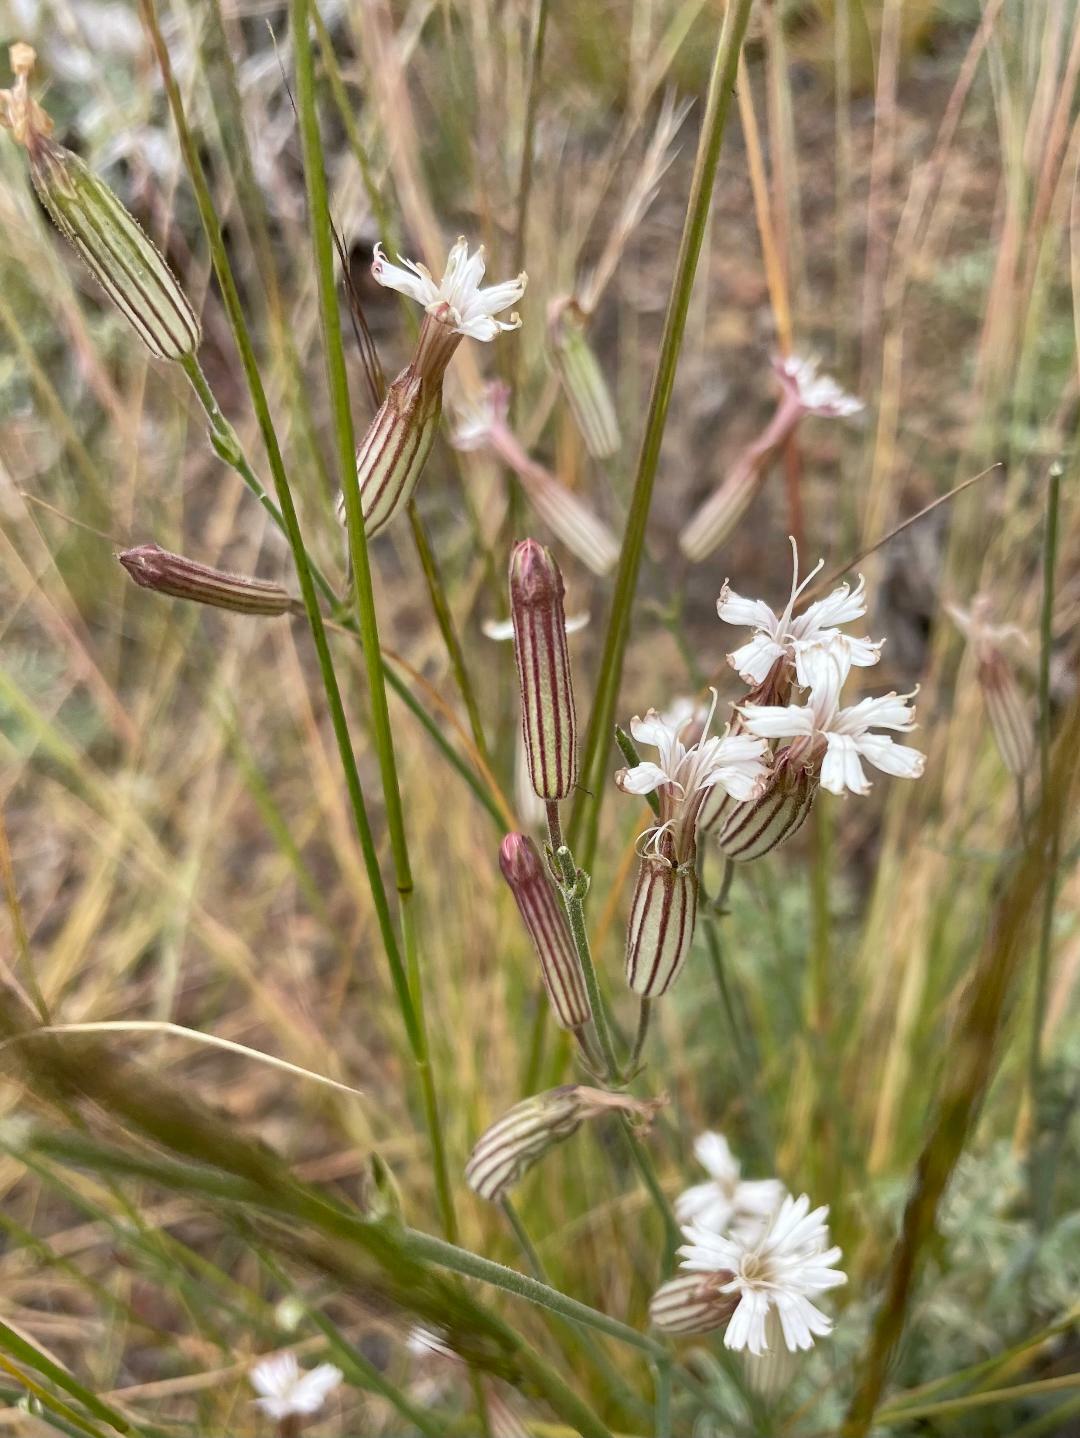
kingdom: Plantae
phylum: Tracheophyta
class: Magnoliopsida
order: Caryophyllales
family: Caryophyllaceae
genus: Silene
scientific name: Silene bernardina
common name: Palmer's catchfly
